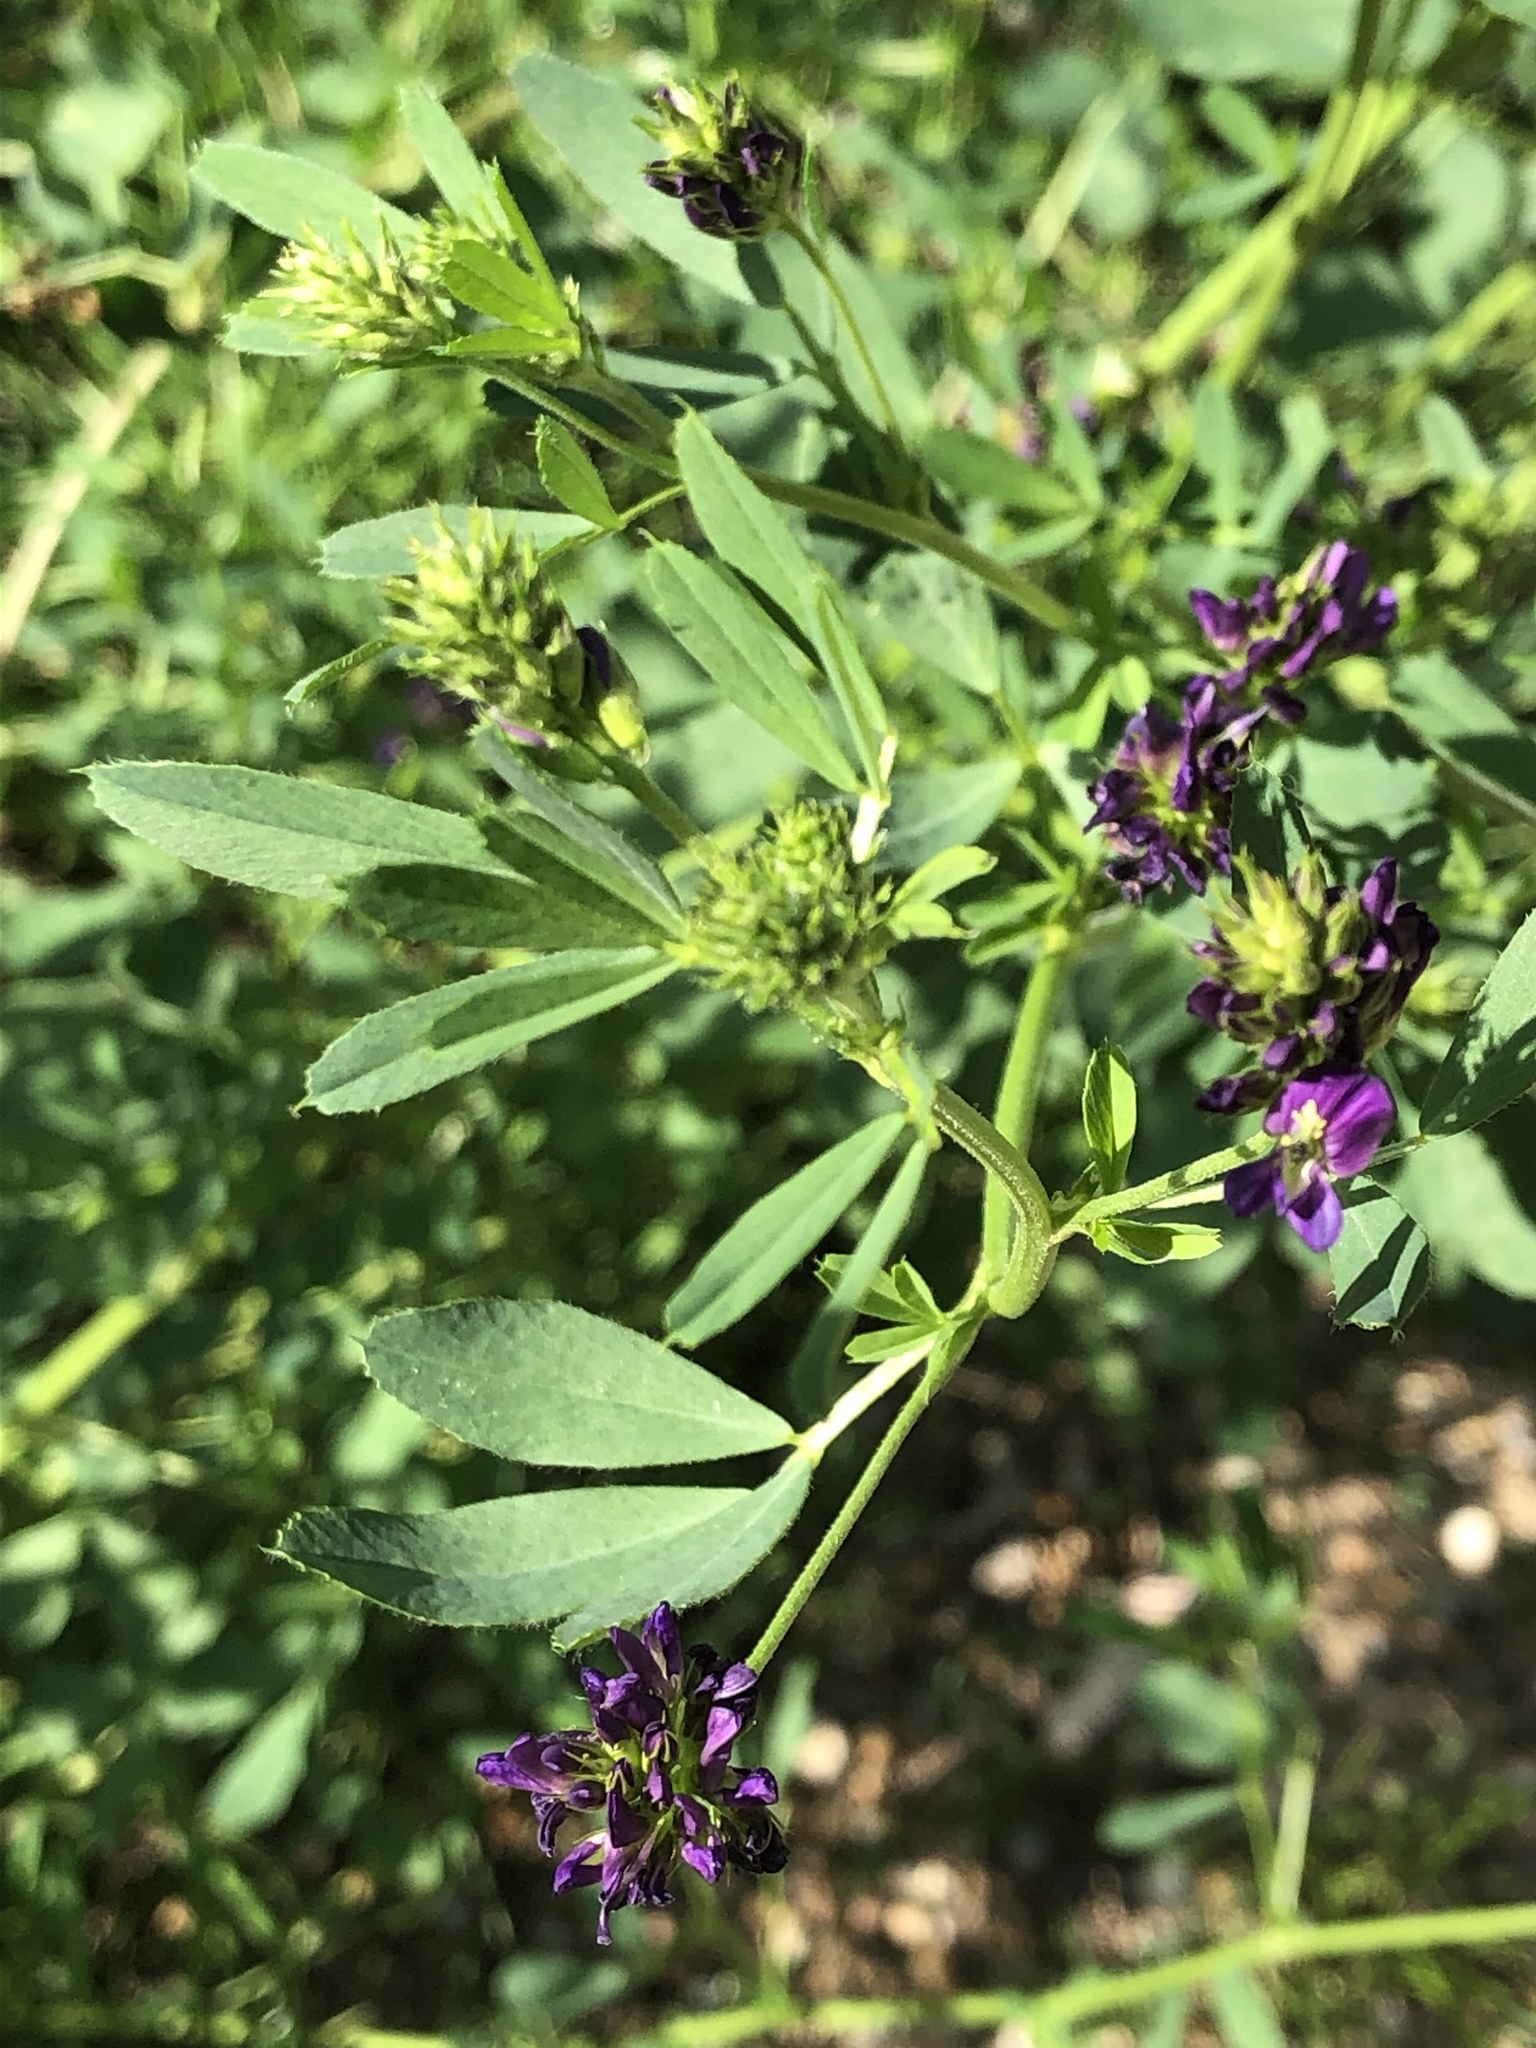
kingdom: Plantae
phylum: Tracheophyta
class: Magnoliopsida
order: Fabales
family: Fabaceae
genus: Medicago
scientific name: Medicago varia
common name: Sand lucerne
